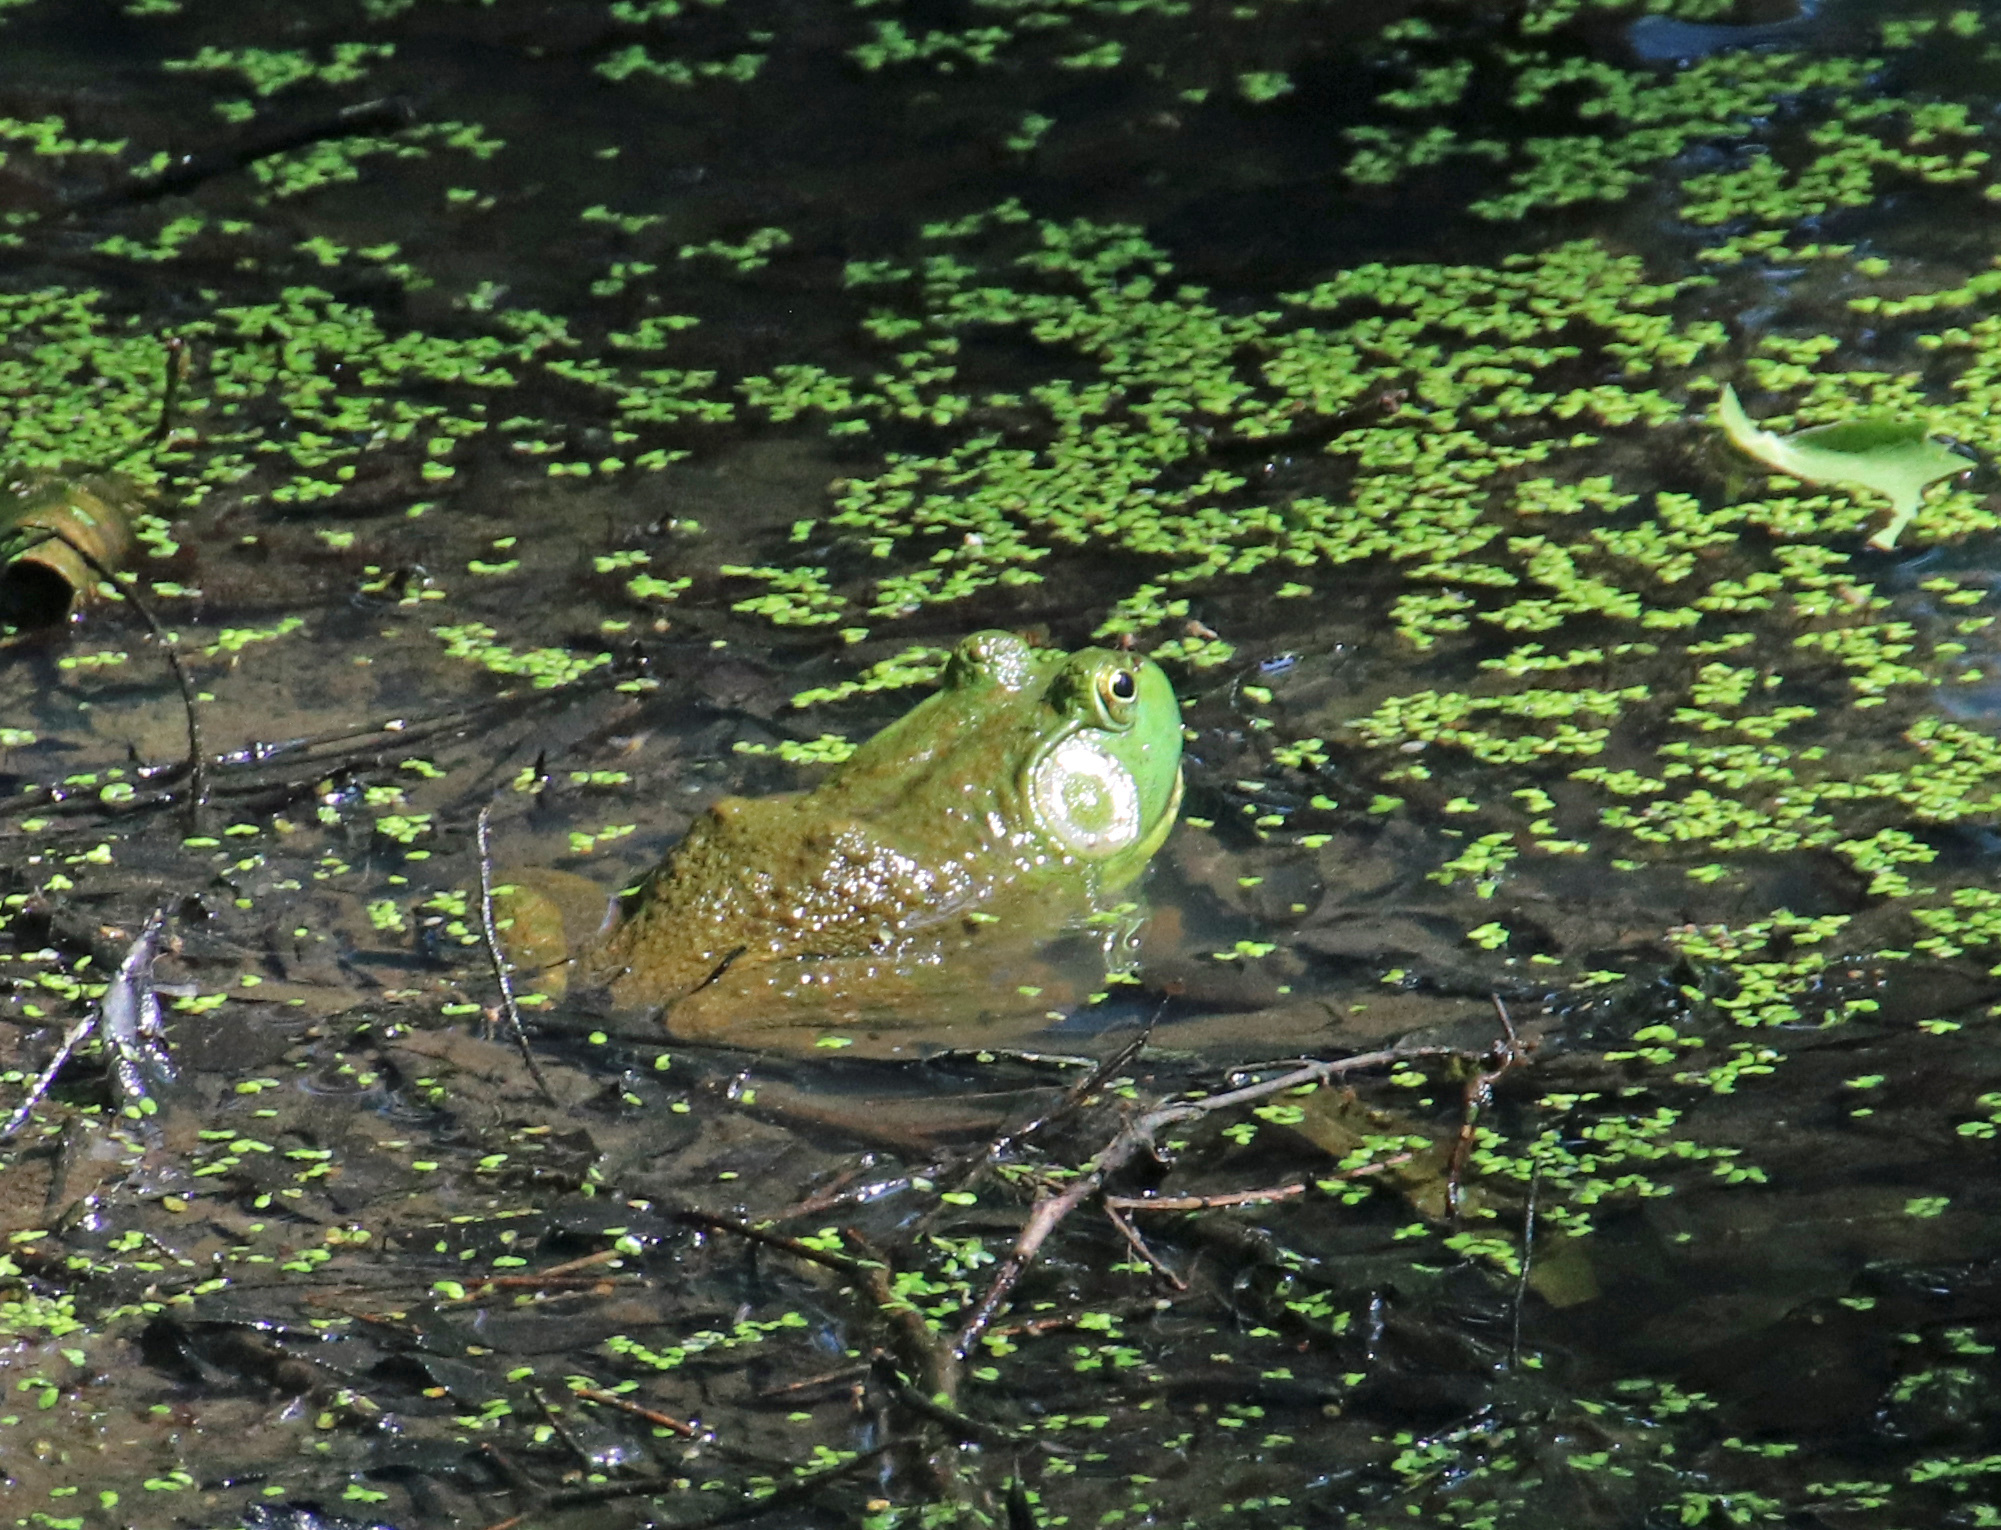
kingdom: Animalia
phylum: Chordata
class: Amphibia
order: Anura
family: Ranidae
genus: Lithobates
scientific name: Lithobates catesbeianus
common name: American bullfrog
